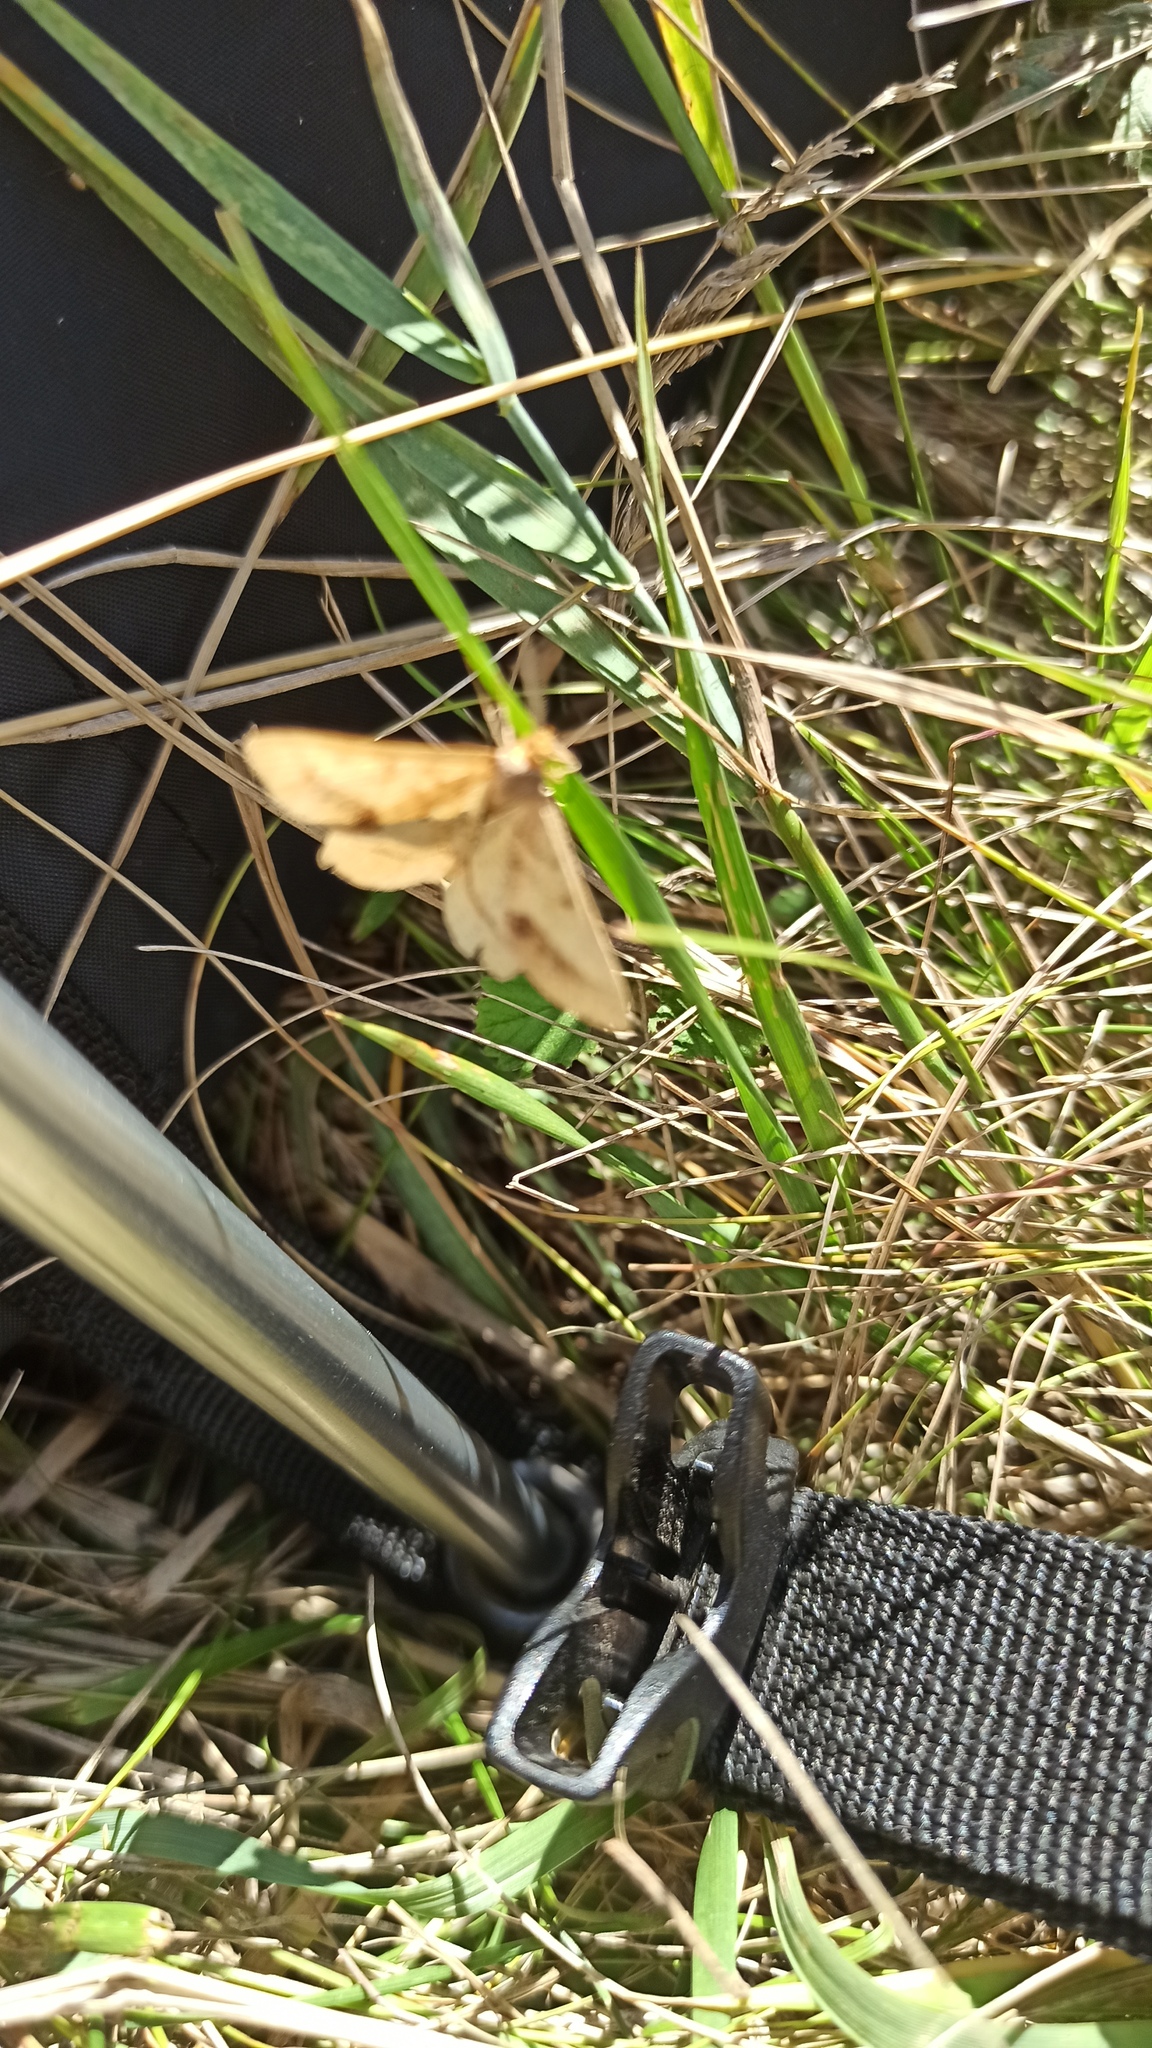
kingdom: Animalia
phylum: Arthropoda
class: Insecta
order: Lepidoptera
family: Geometridae
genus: Tephrina
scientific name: Tephrina arenacearia
